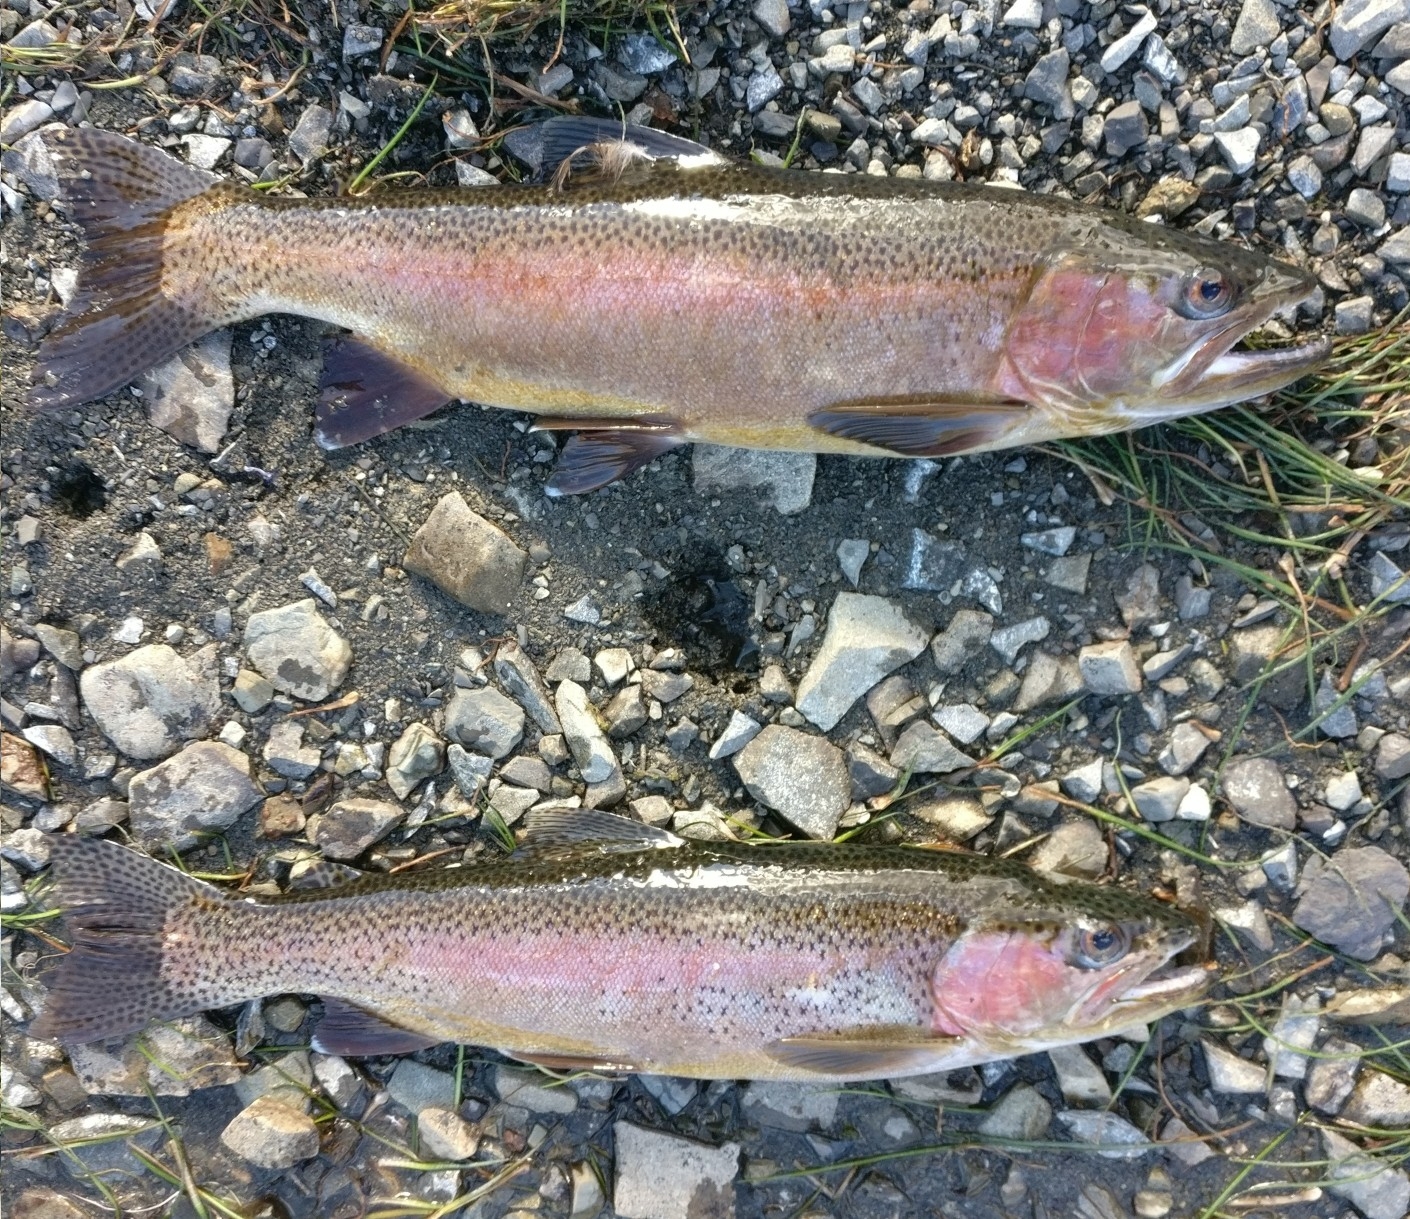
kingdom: Animalia
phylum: Chordata
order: Salmoniformes
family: Salmonidae
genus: Oncorhynchus
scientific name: Oncorhynchus mykiss
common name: Rainbow trout
